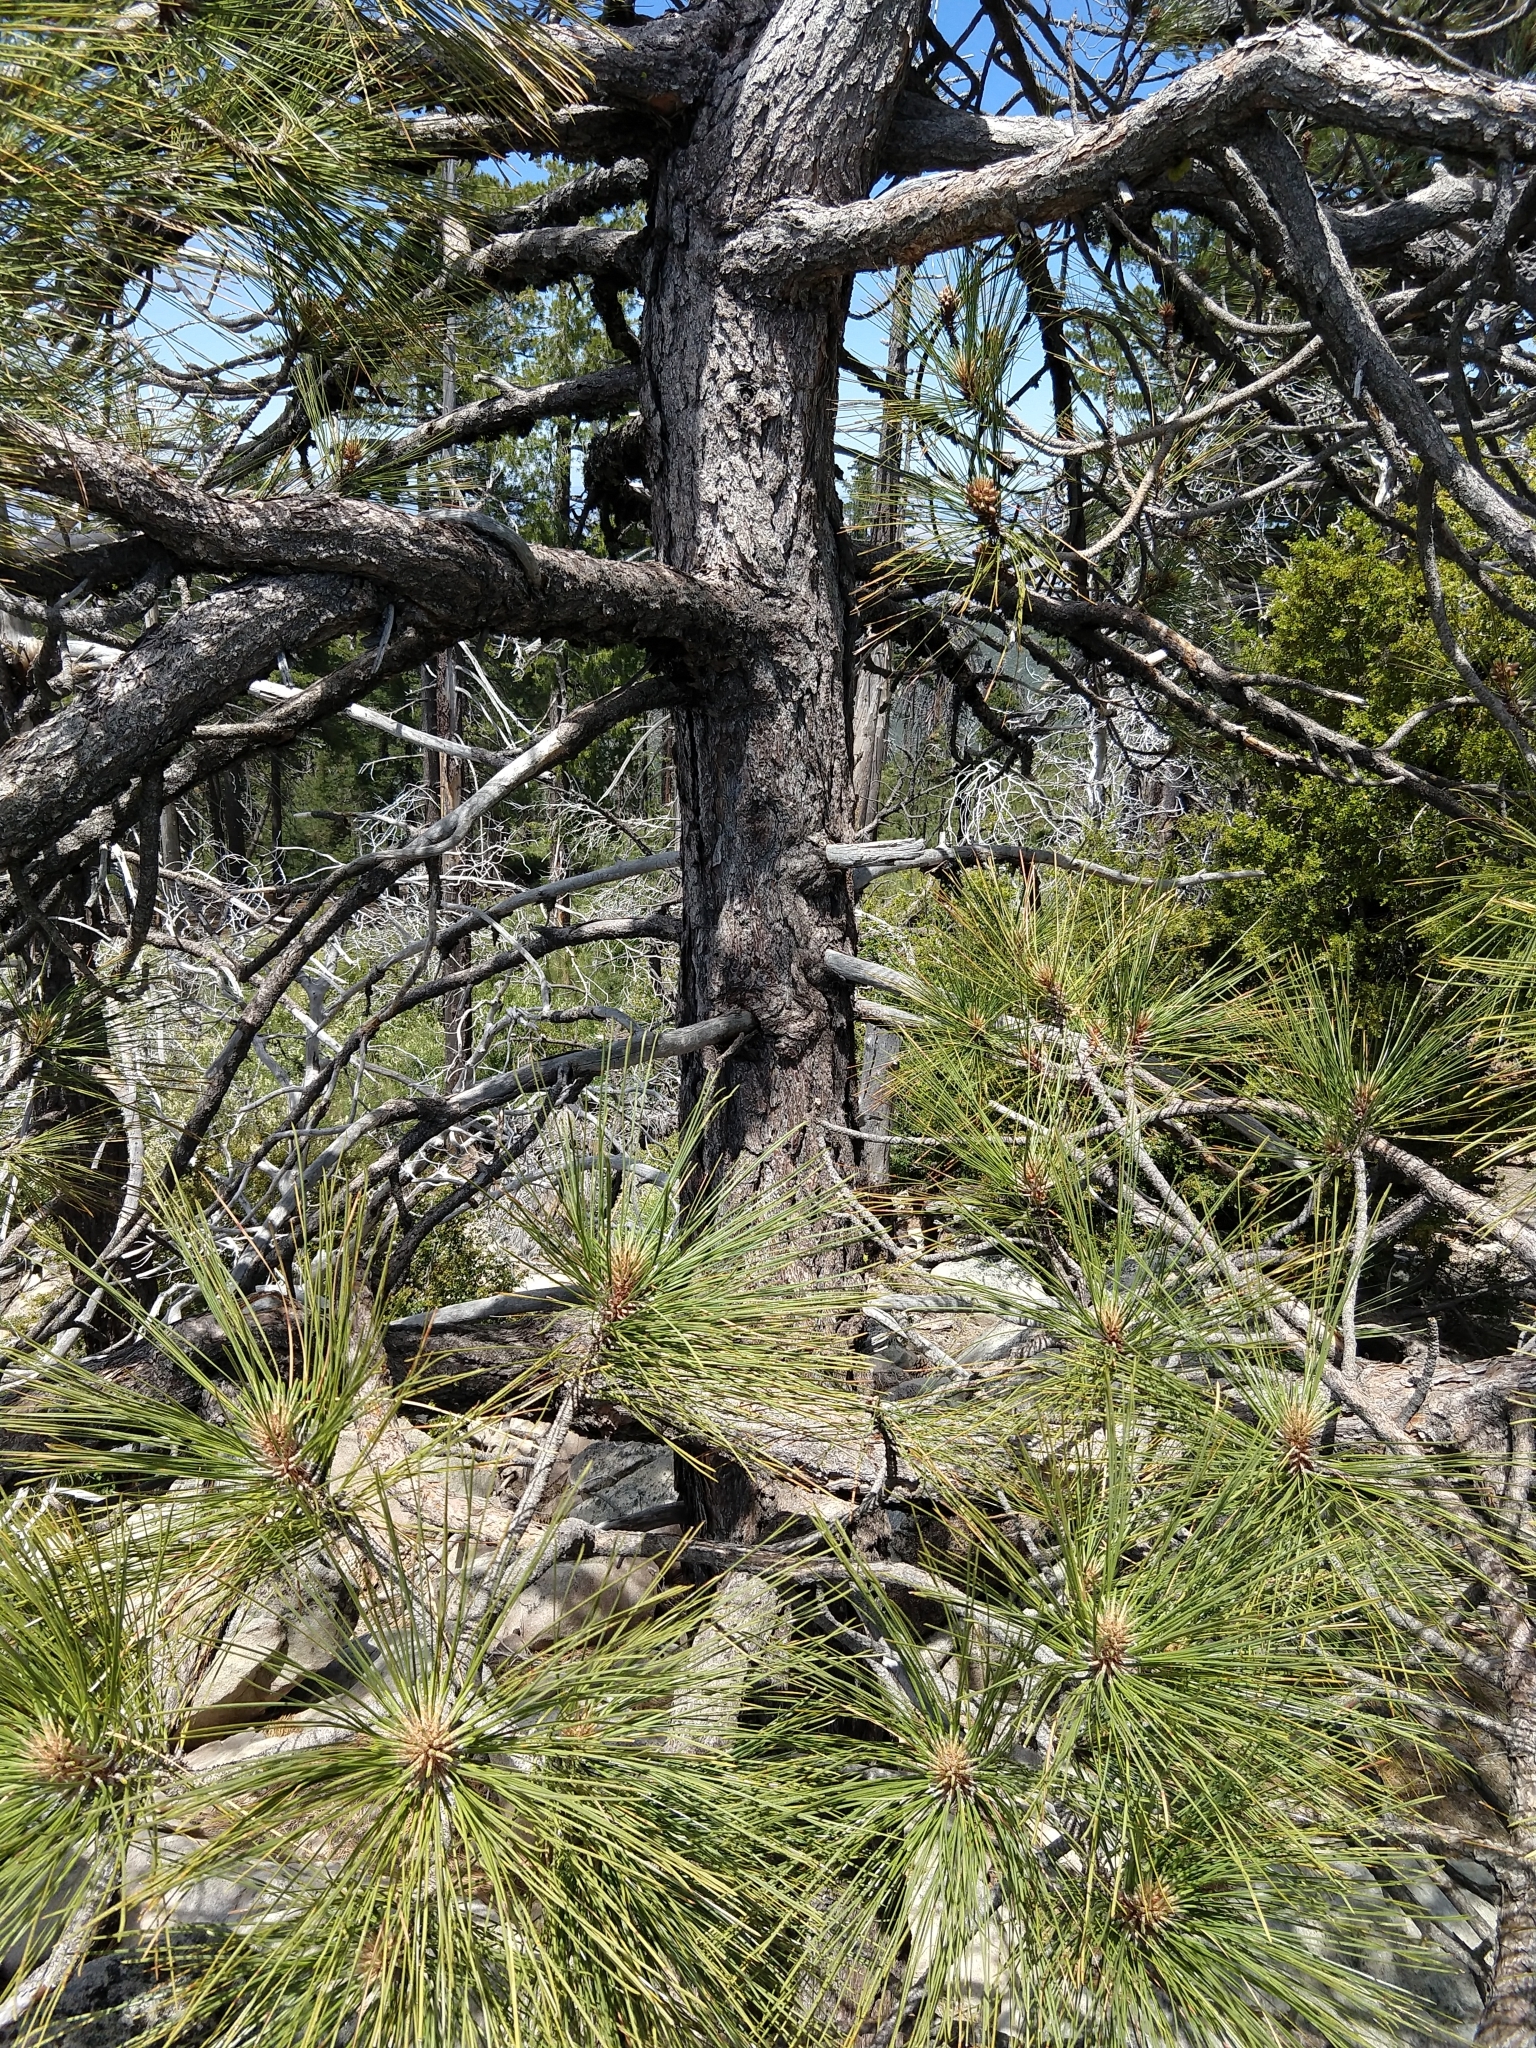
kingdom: Plantae
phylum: Tracheophyta
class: Pinopsida
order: Pinales
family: Pinaceae
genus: Pinus
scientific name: Pinus coulteri
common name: Coulter pine
